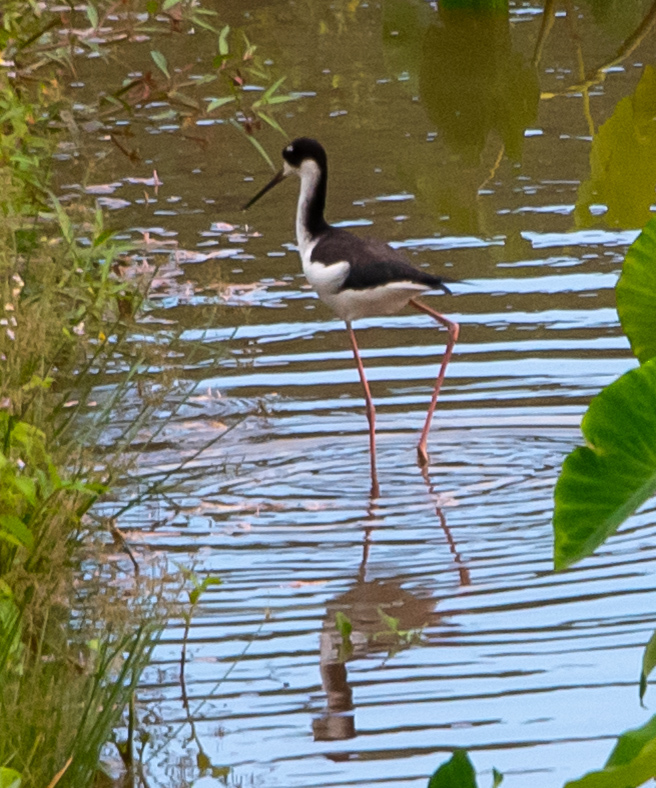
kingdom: Animalia
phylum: Chordata
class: Aves
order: Charadriiformes
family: Recurvirostridae
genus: Himantopus
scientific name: Himantopus mexicanus
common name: Black-necked stilt
